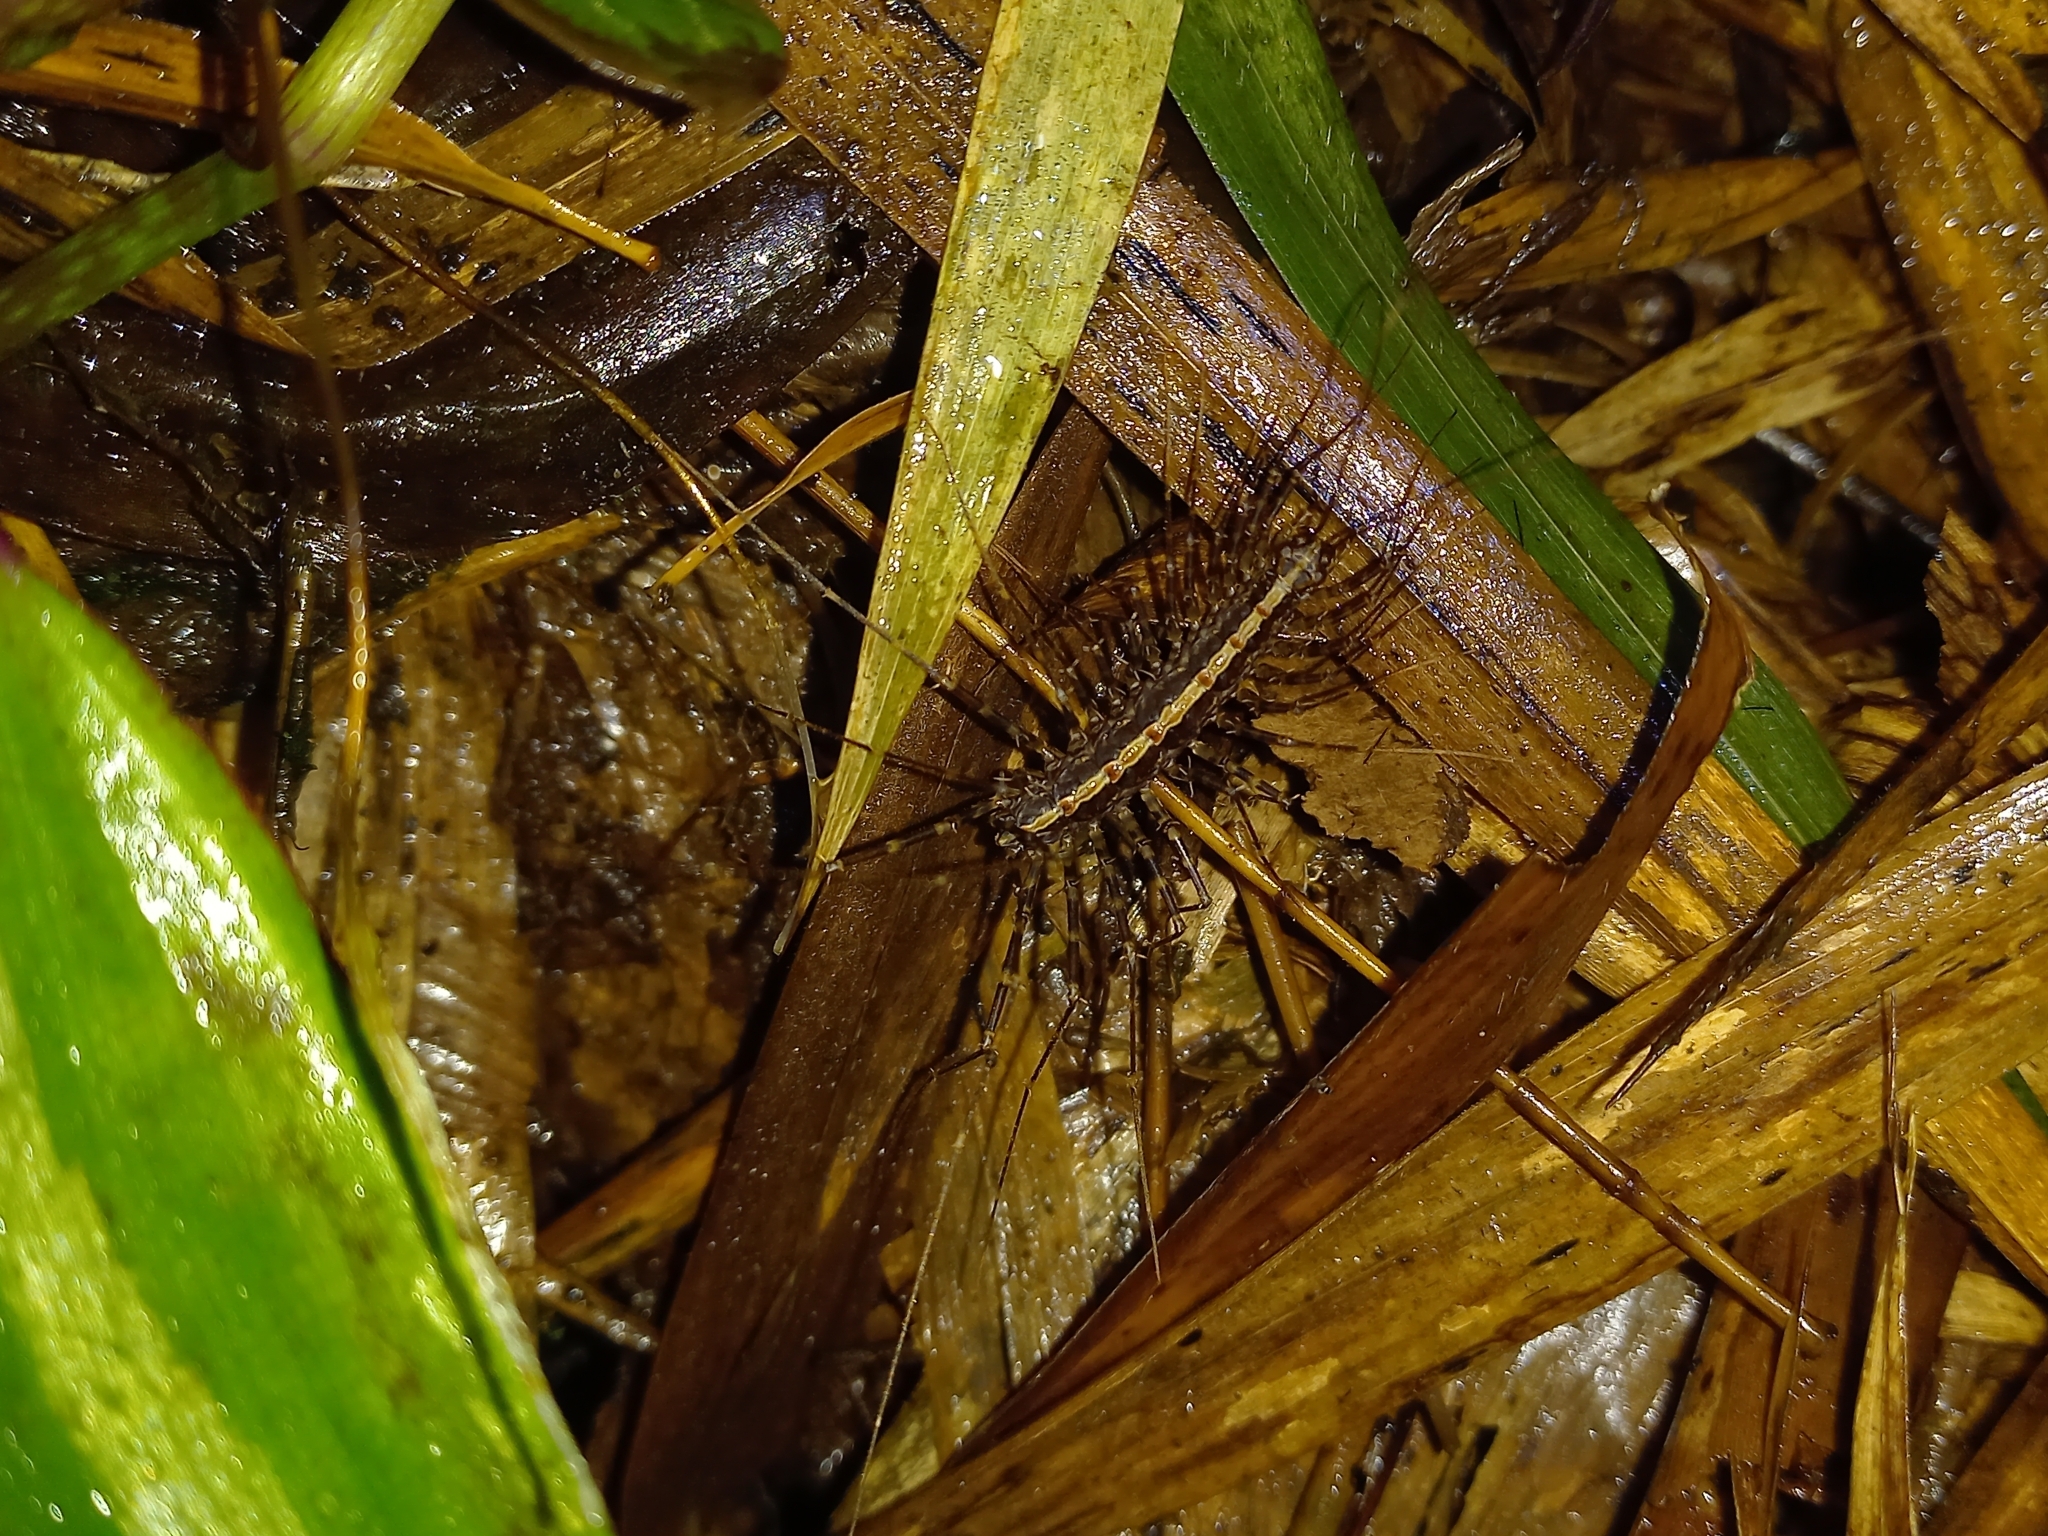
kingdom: Animalia
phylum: Arthropoda
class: Chilopoda
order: Scutigeromorpha
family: Pselliodidae
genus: Sphendononema
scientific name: Sphendononema guildingii
